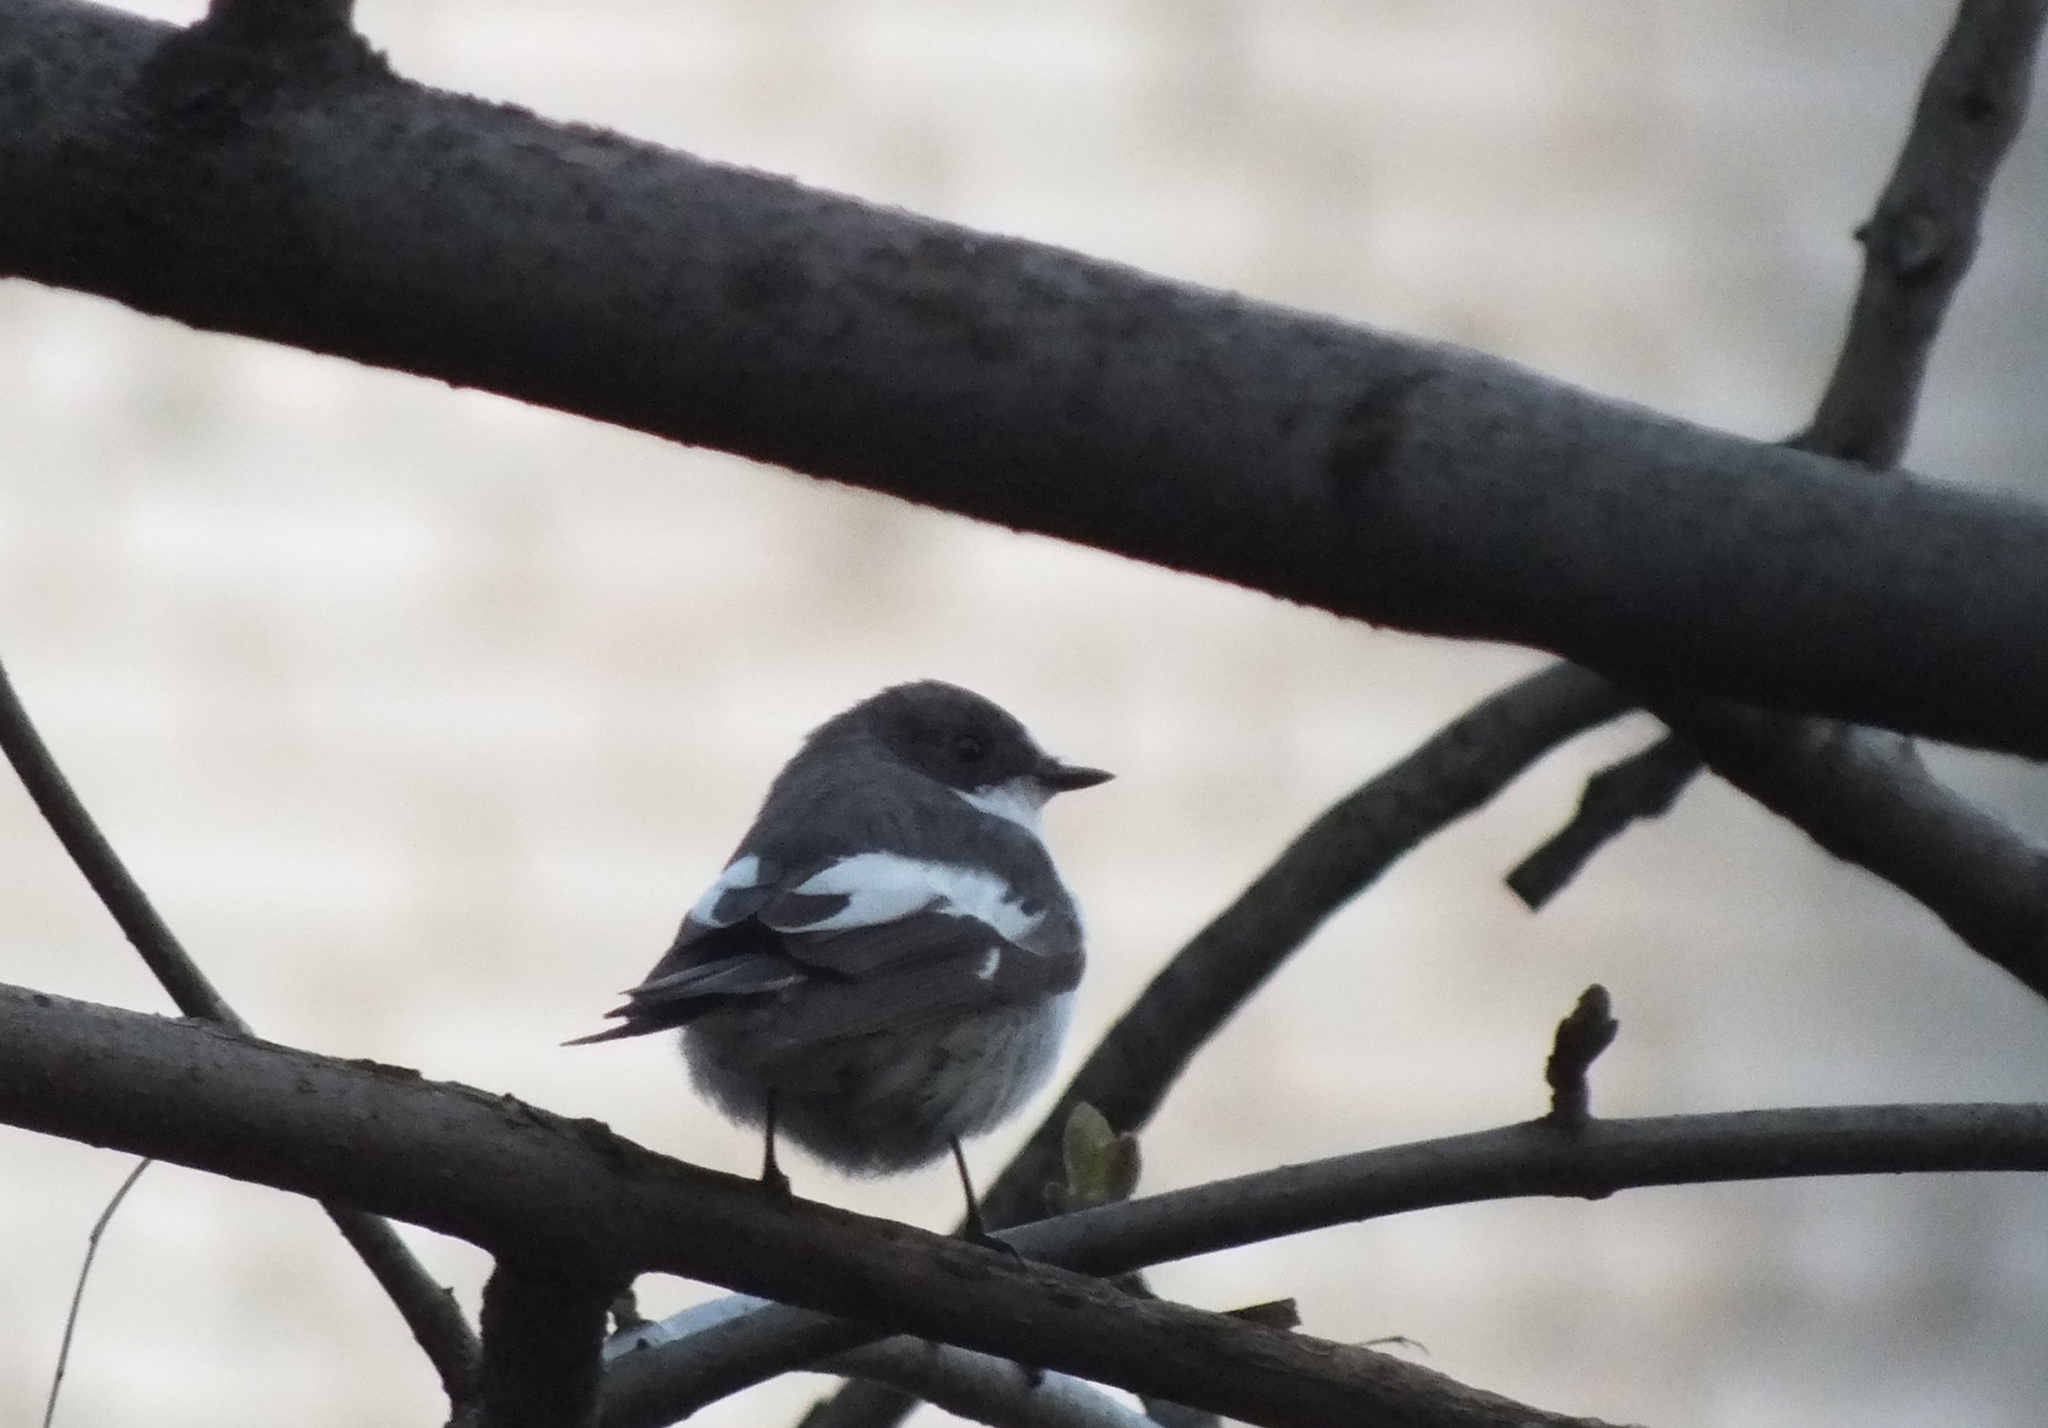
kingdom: Animalia
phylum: Chordata
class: Aves
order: Passeriformes
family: Muscicapidae
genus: Ficedula
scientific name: Ficedula hypoleuca
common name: European pied flycatcher
